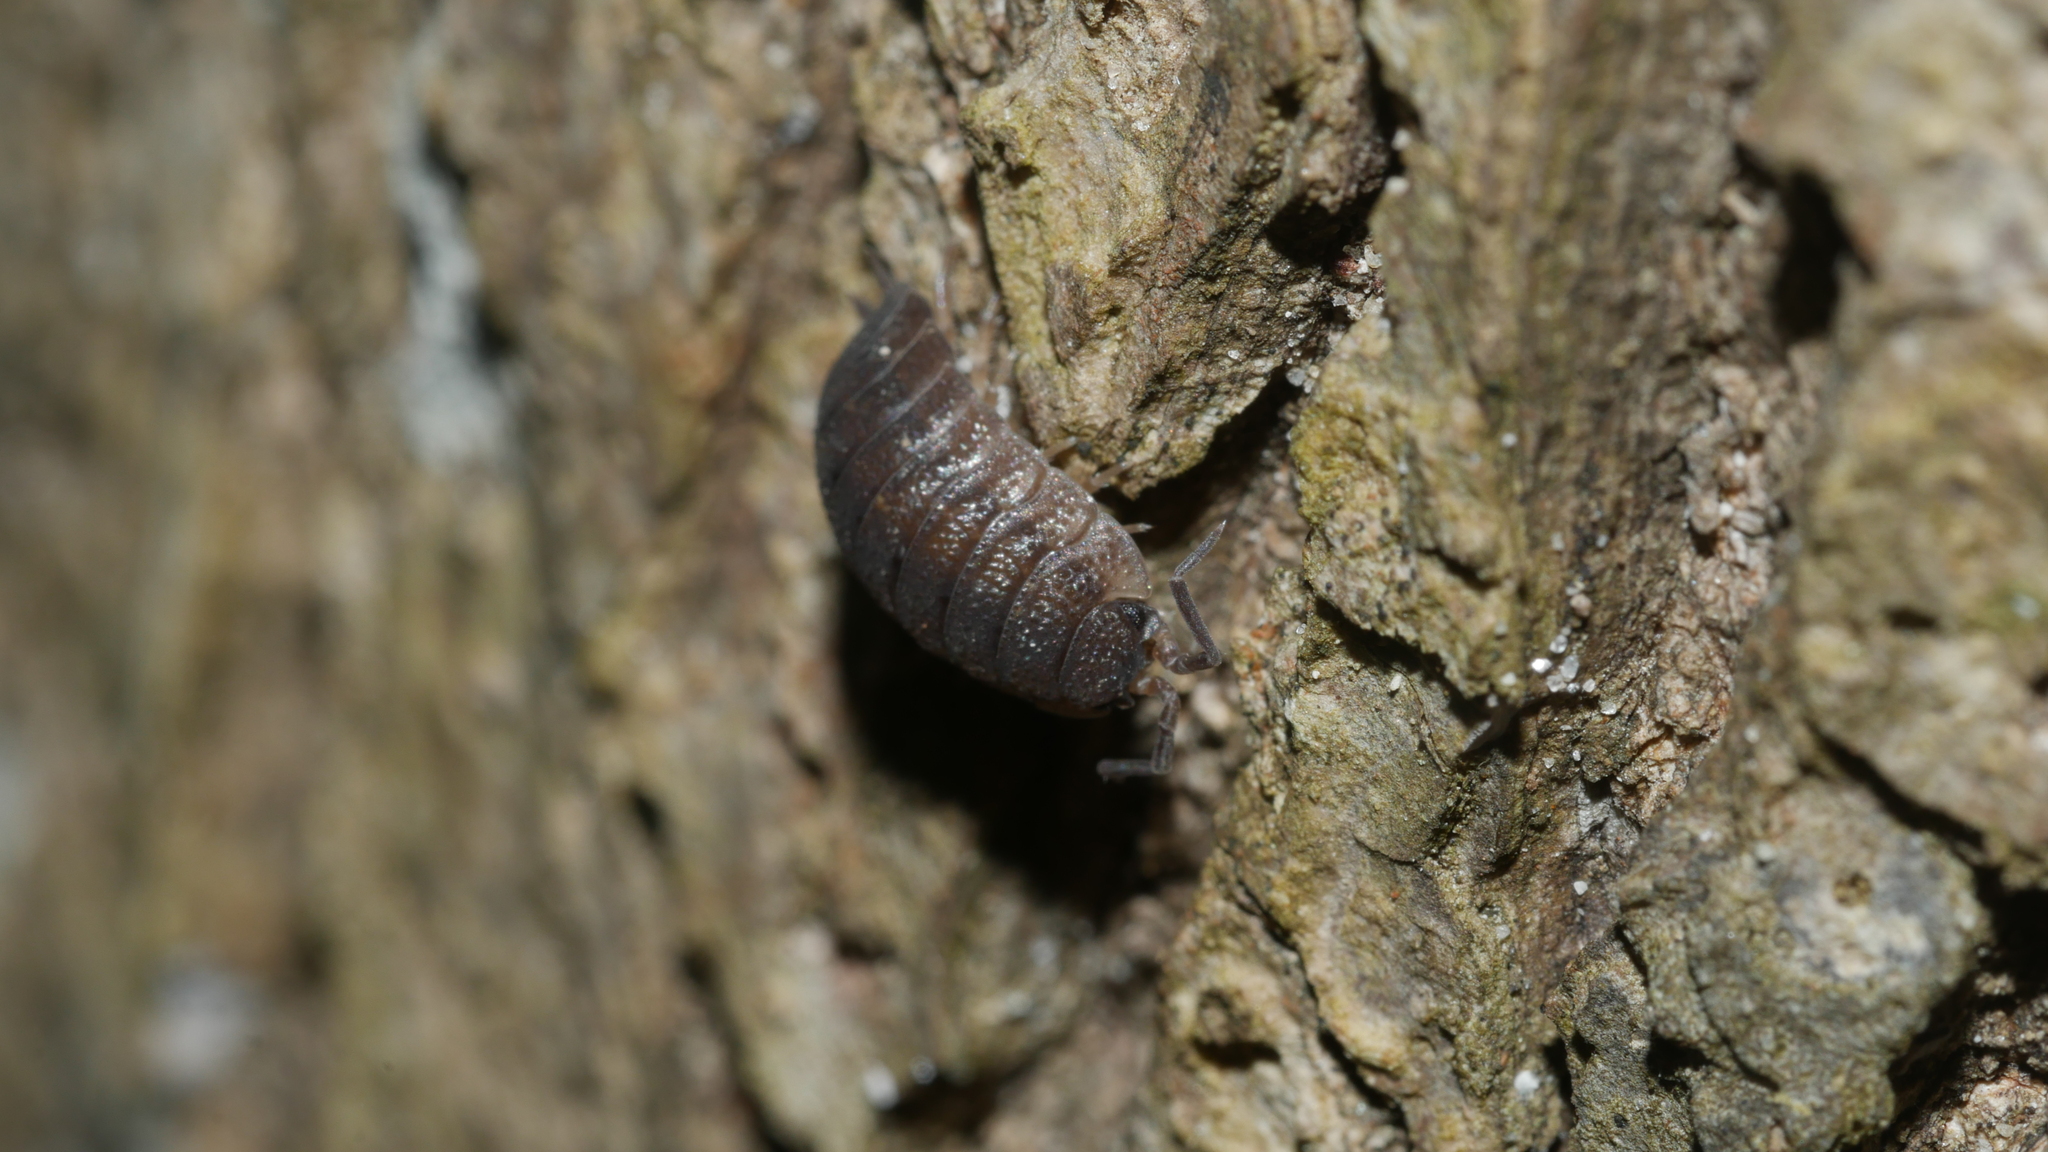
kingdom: Animalia
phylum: Arthropoda
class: Malacostraca
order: Isopoda
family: Porcellionidae
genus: Porcellio
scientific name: Porcellio scaber
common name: Common rough woodlouse
